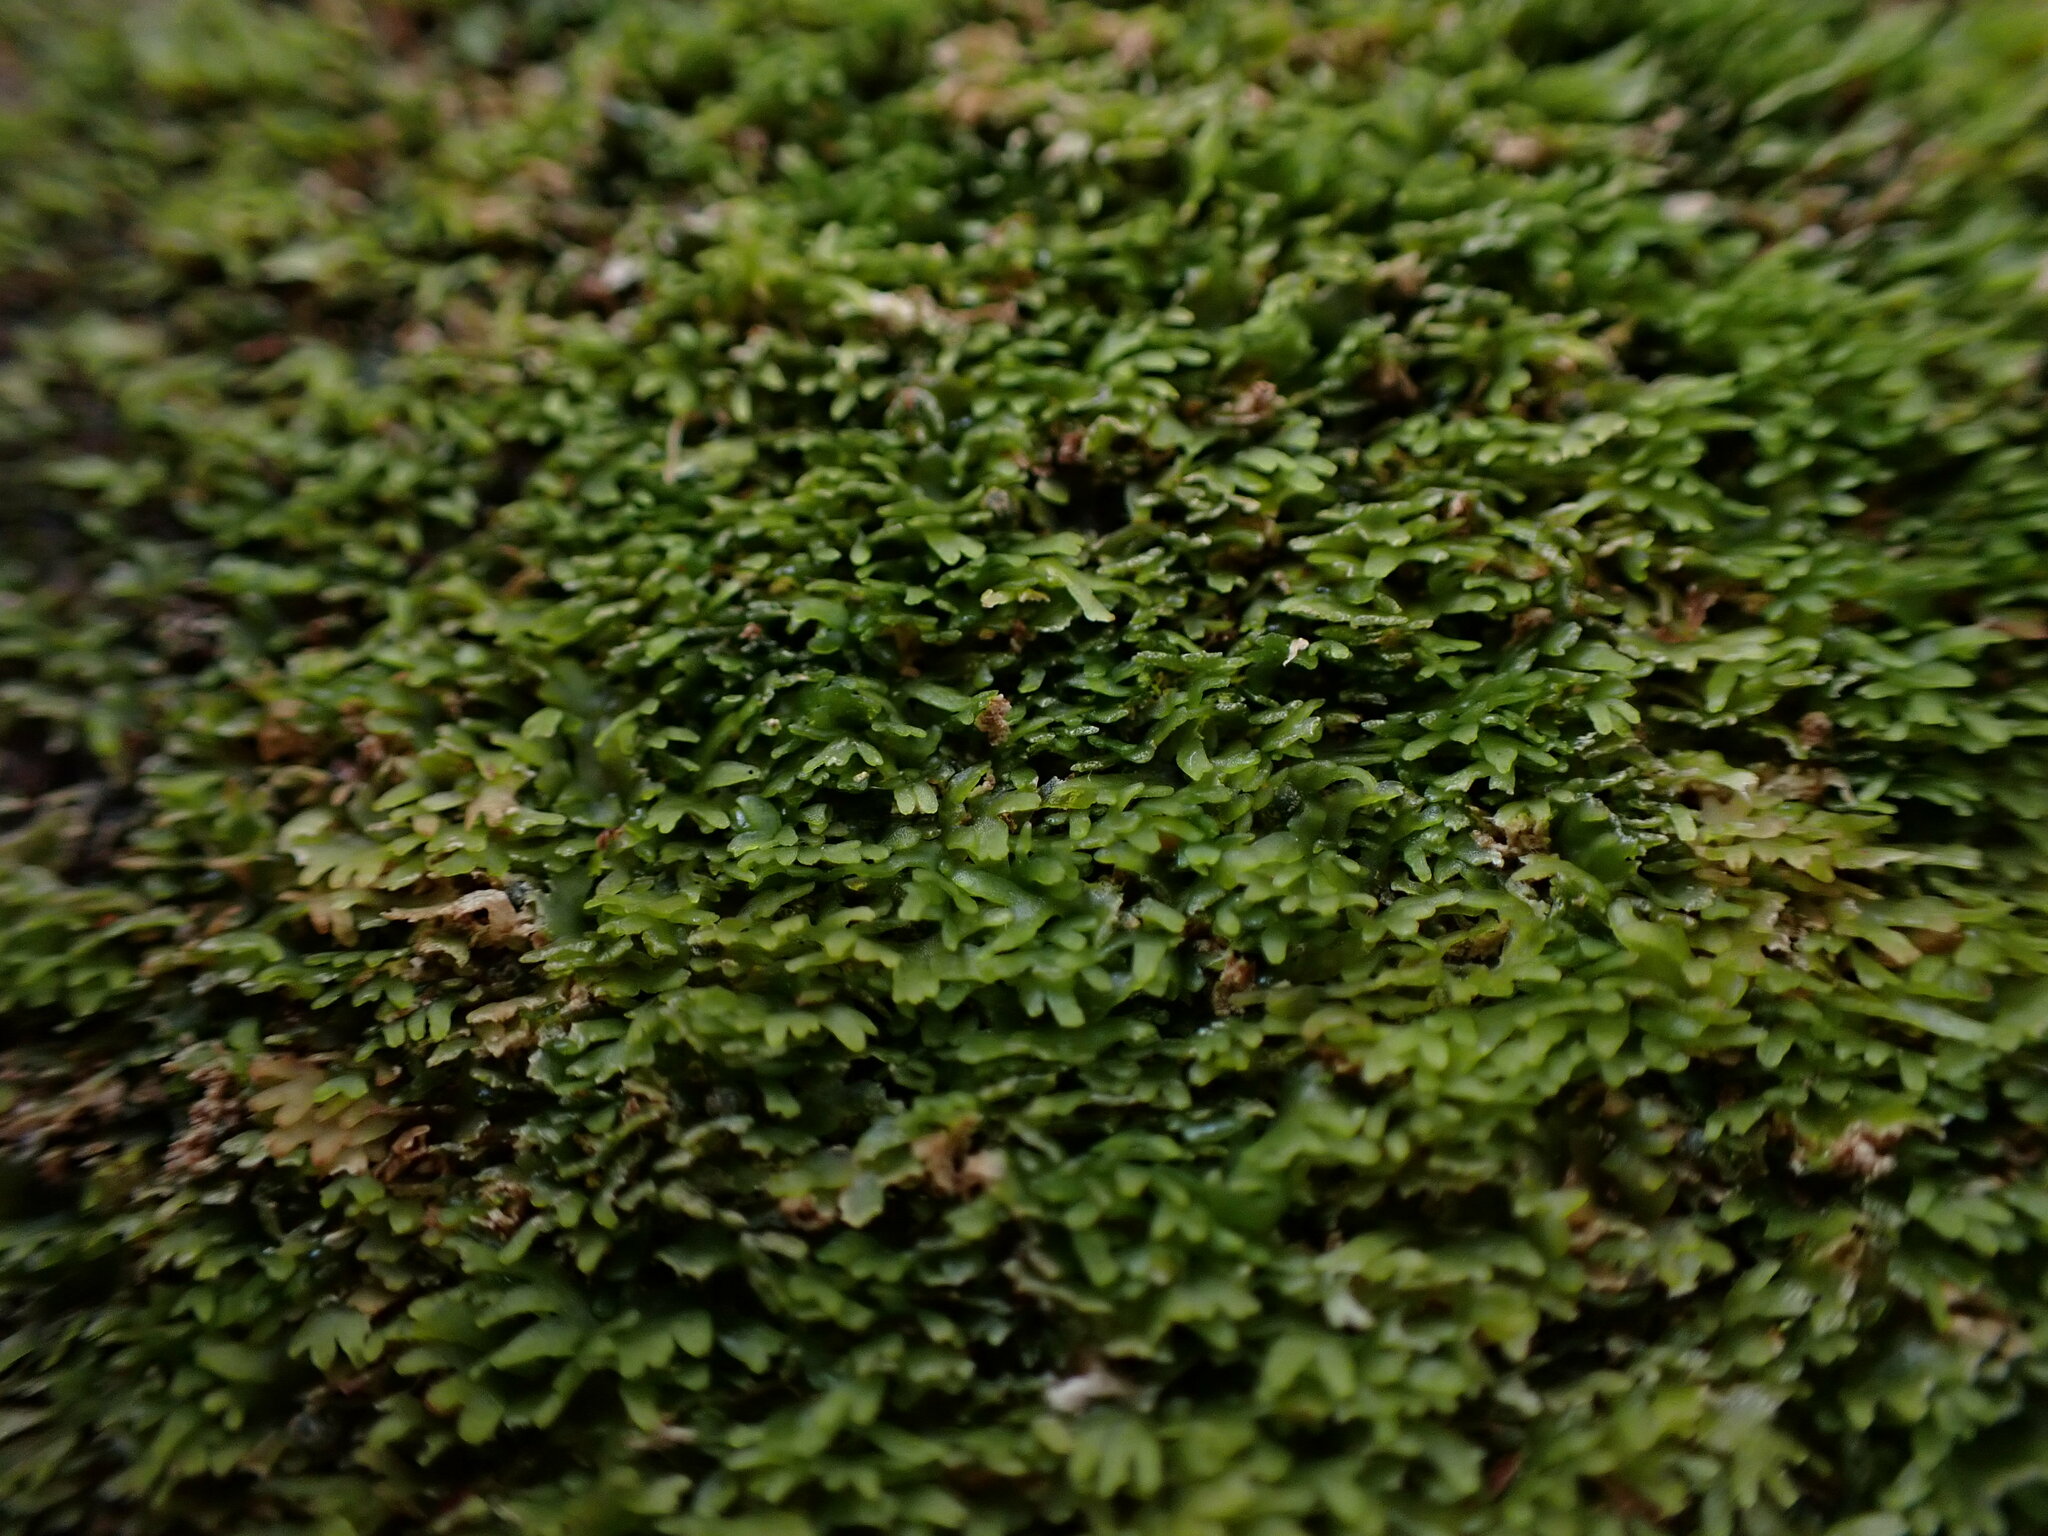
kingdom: Plantae
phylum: Marchantiophyta
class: Jungermanniopsida
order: Metzgeriales
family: Aneuraceae
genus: Riccardia
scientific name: Riccardia latifrons
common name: Bog germanderwort
